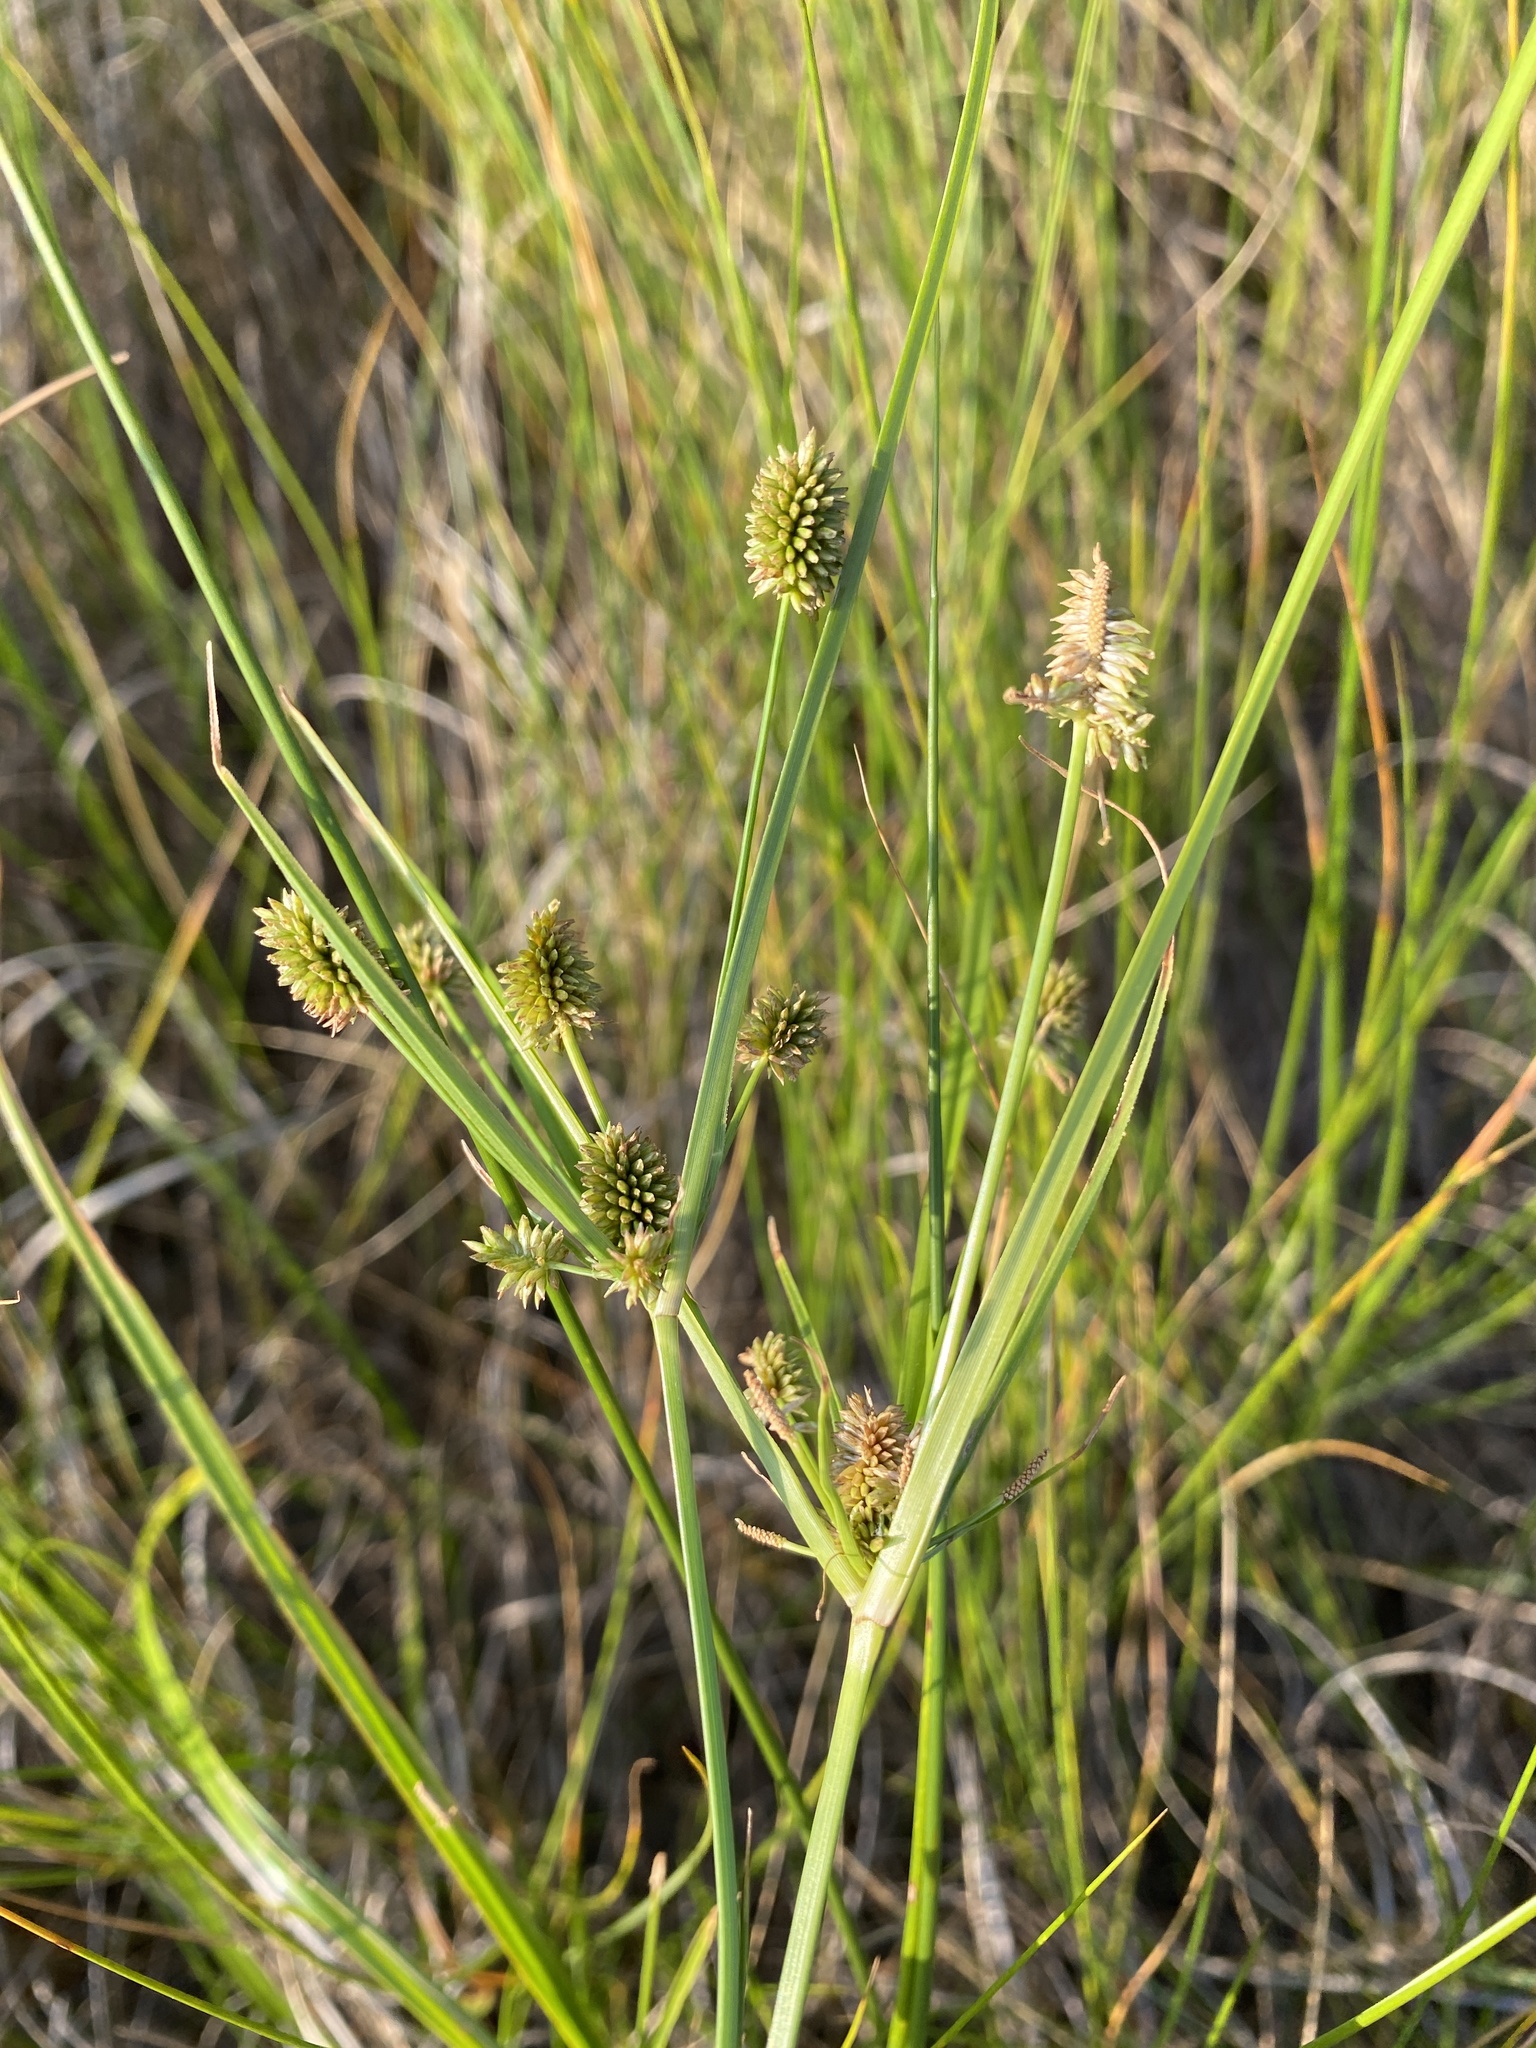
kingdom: Plantae
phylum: Tracheophyta
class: Liliopsida
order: Poales
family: Cyperaceae
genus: Cyperus
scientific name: Cyperus retrorsus
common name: Pinebarren flat sedge
